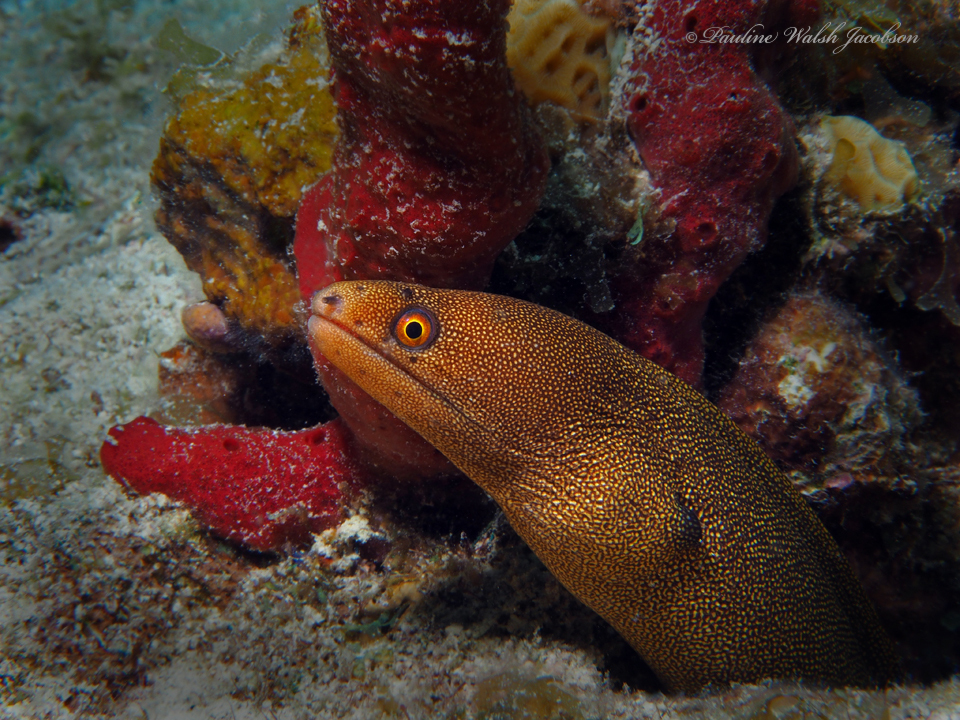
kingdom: Animalia
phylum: Chordata
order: Anguilliformes
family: Muraenidae
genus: Gymnothorax
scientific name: Gymnothorax miliaris
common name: Goldentail moray
